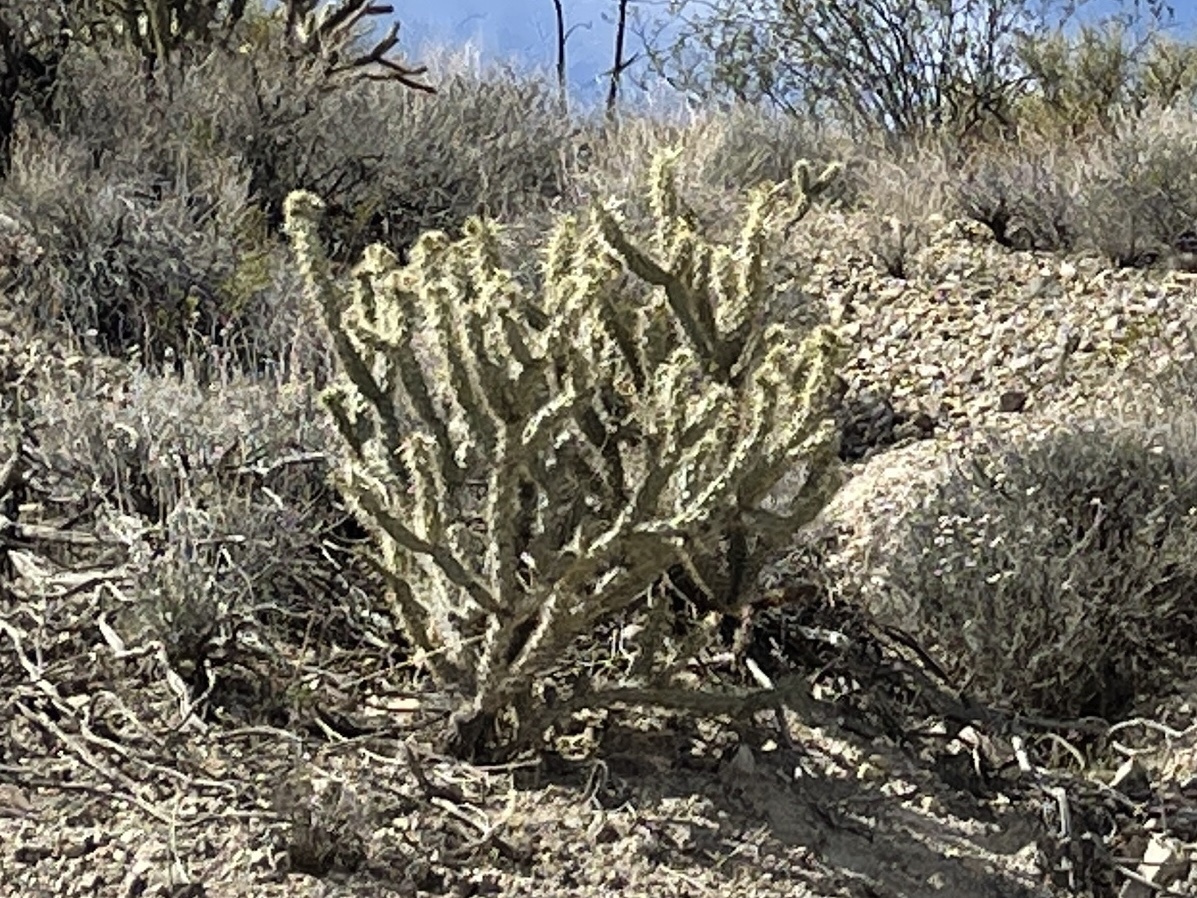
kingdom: Plantae
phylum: Tracheophyta
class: Magnoliopsida
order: Caryophyllales
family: Cactaceae
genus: Cylindropuntia
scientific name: Cylindropuntia acanthocarpa
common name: Buckhorn cholla
